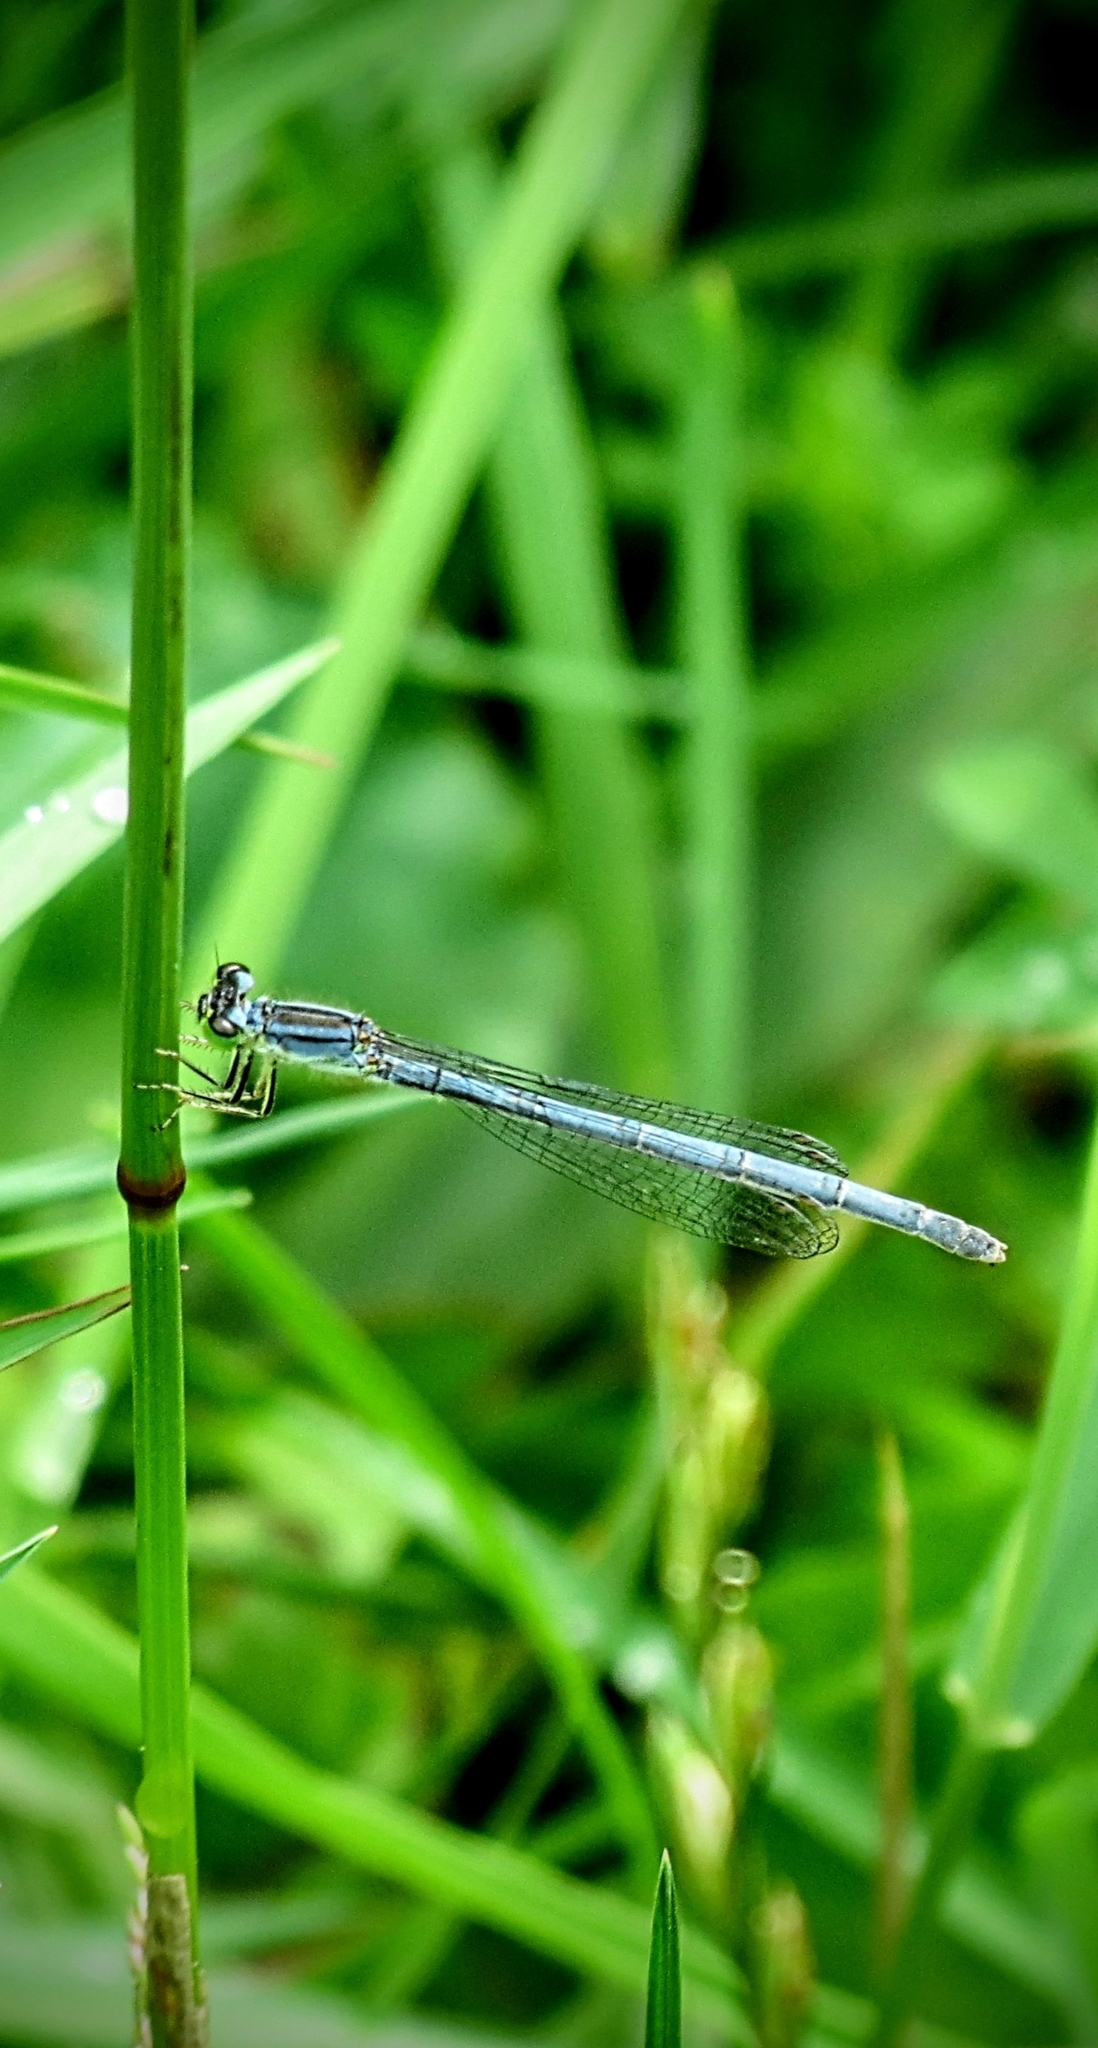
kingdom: Animalia
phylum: Arthropoda
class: Insecta
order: Odonata
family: Coenagrionidae
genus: Ischnura
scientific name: Ischnura verticalis
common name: Eastern forktail
